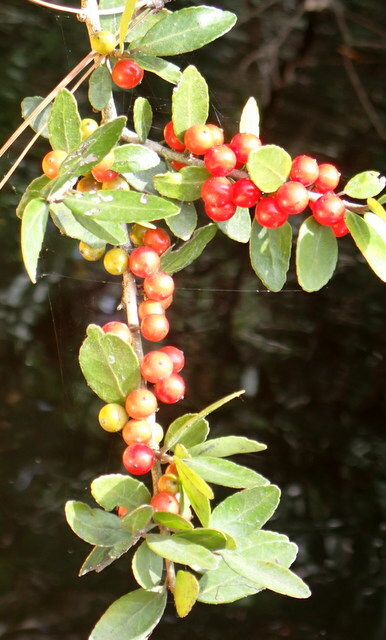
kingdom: Plantae
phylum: Tracheophyta
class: Magnoliopsida
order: Aquifoliales
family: Aquifoliaceae
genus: Ilex
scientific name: Ilex vomitoria
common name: Yaupon holly
